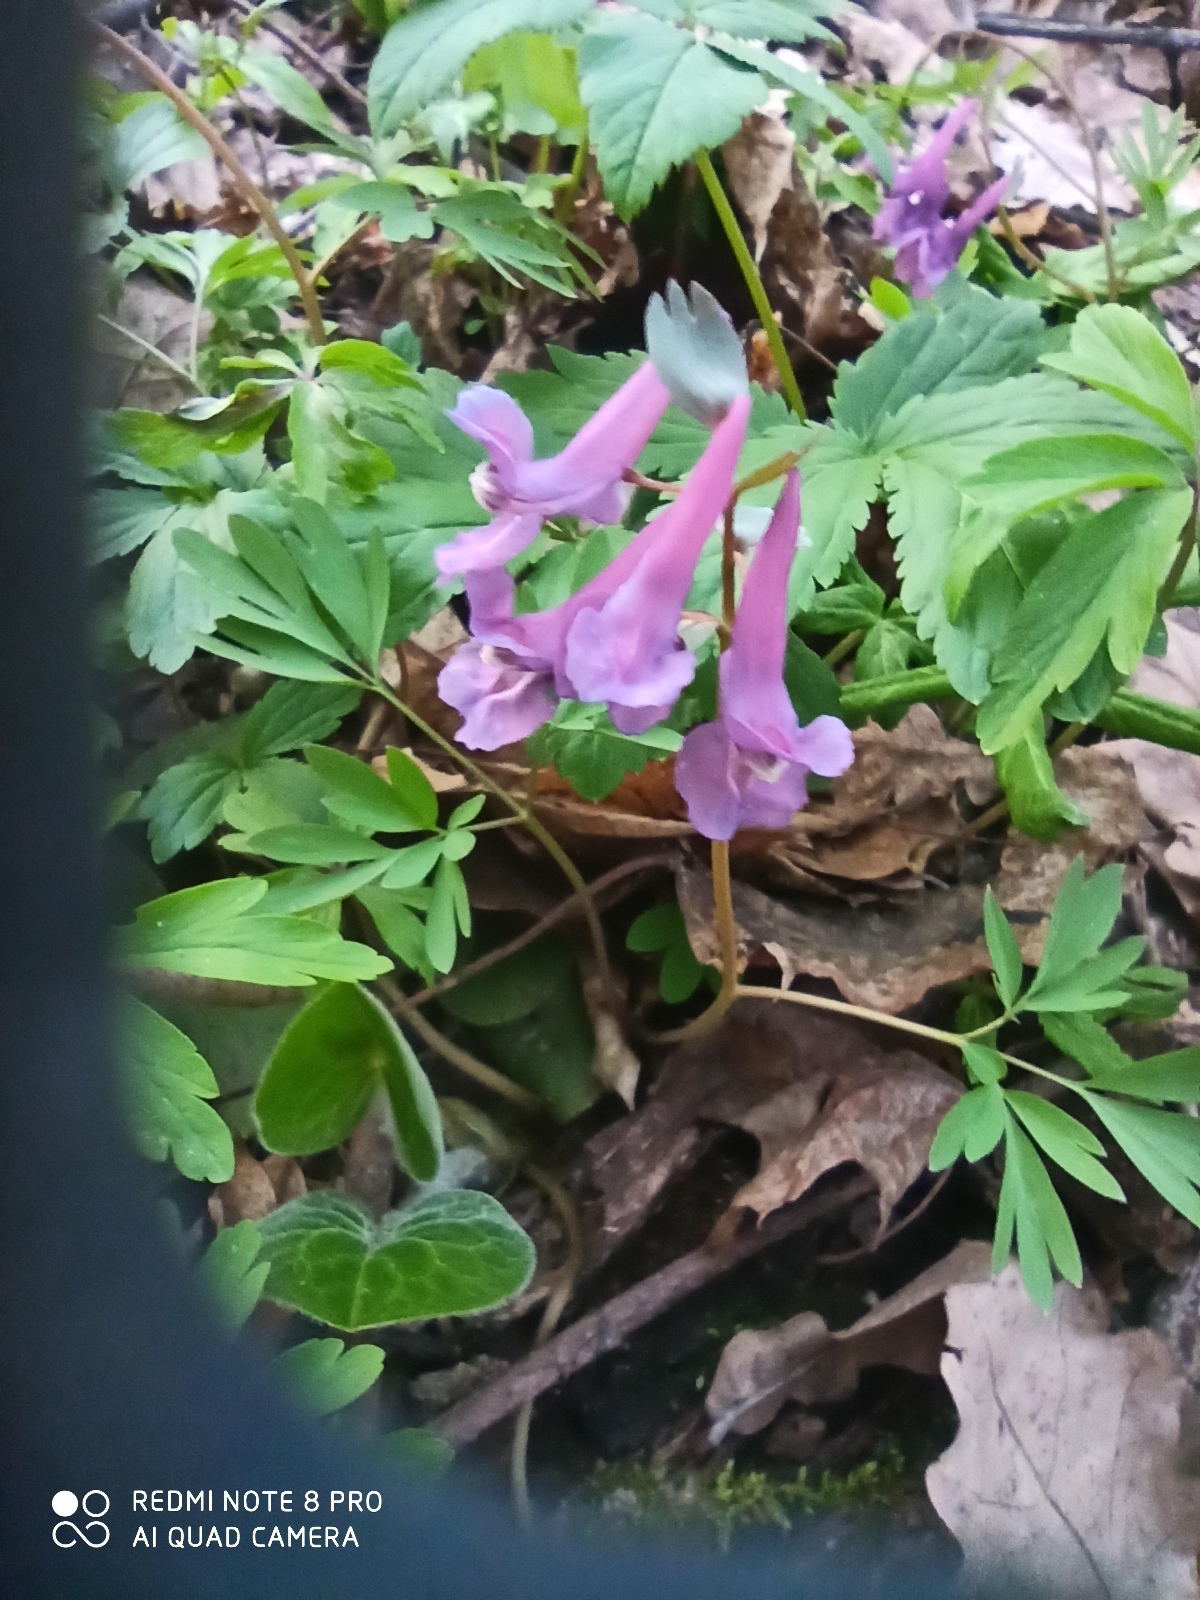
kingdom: Plantae
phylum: Tracheophyta
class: Magnoliopsida
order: Ranunculales
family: Papaveraceae
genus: Corydalis
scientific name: Corydalis solida
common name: Bird-in-a-bush
